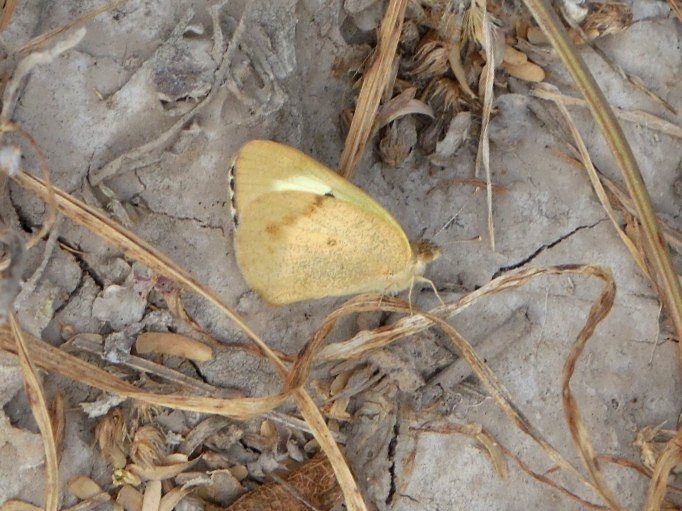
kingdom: Animalia
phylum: Arthropoda
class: Insecta
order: Lepidoptera
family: Pieridae
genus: Colotis
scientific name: Colotis fausta
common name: Large salmon arab
